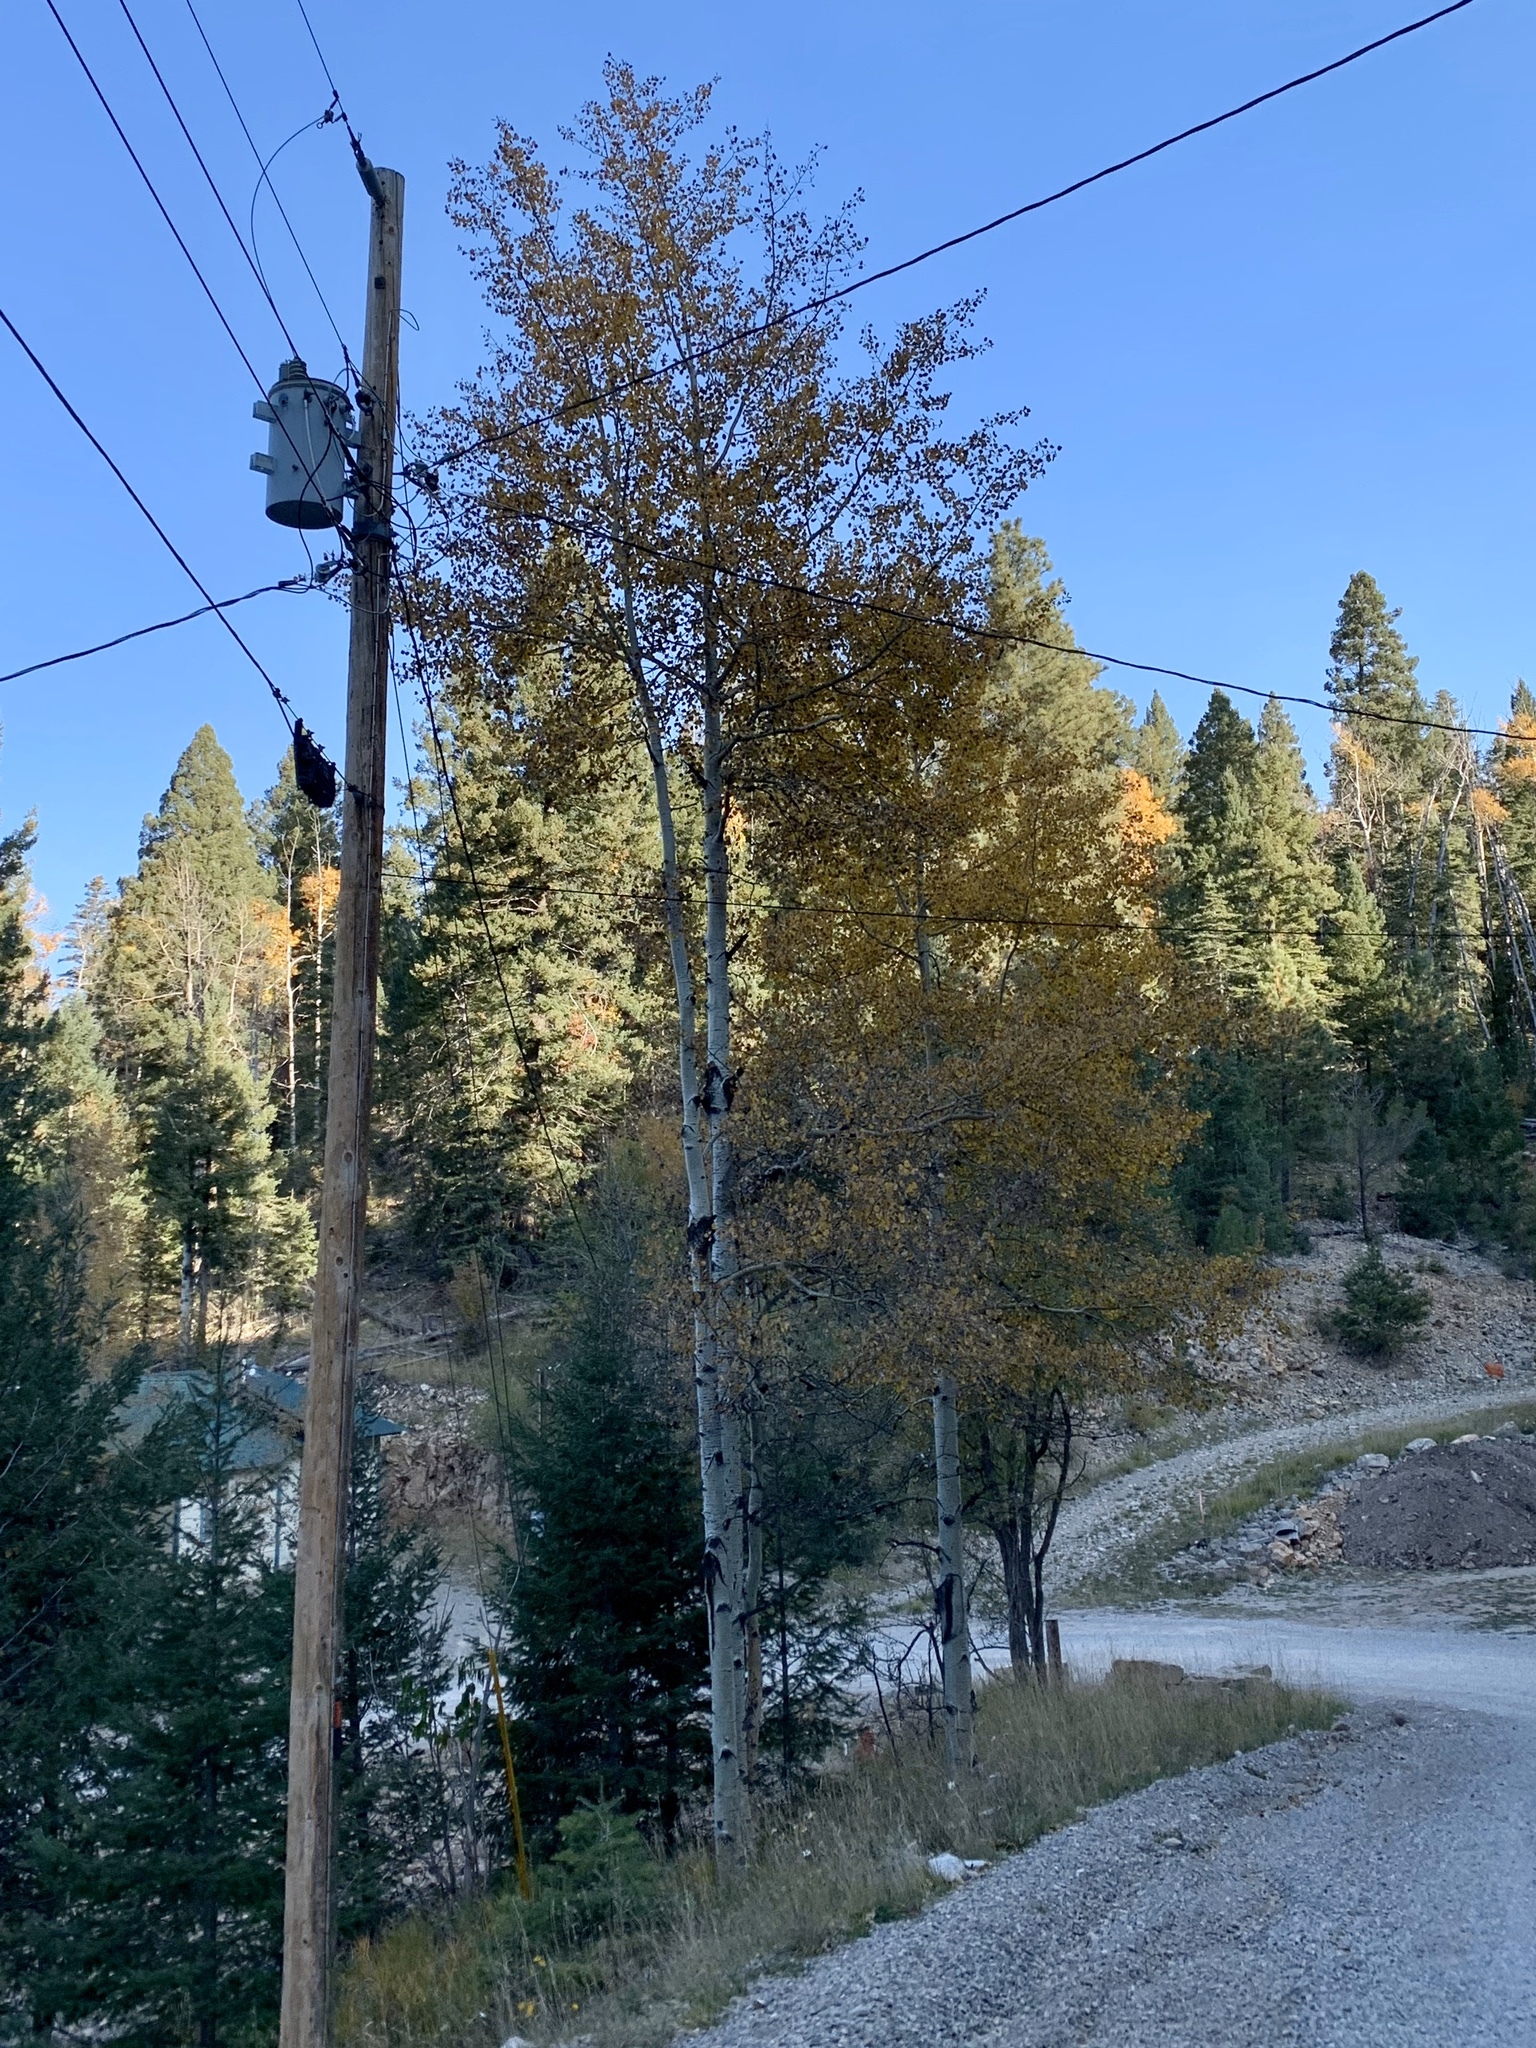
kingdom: Plantae
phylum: Tracheophyta
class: Magnoliopsida
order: Malpighiales
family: Salicaceae
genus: Populus
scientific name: Populus tremuloides
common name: Quaking aspen
